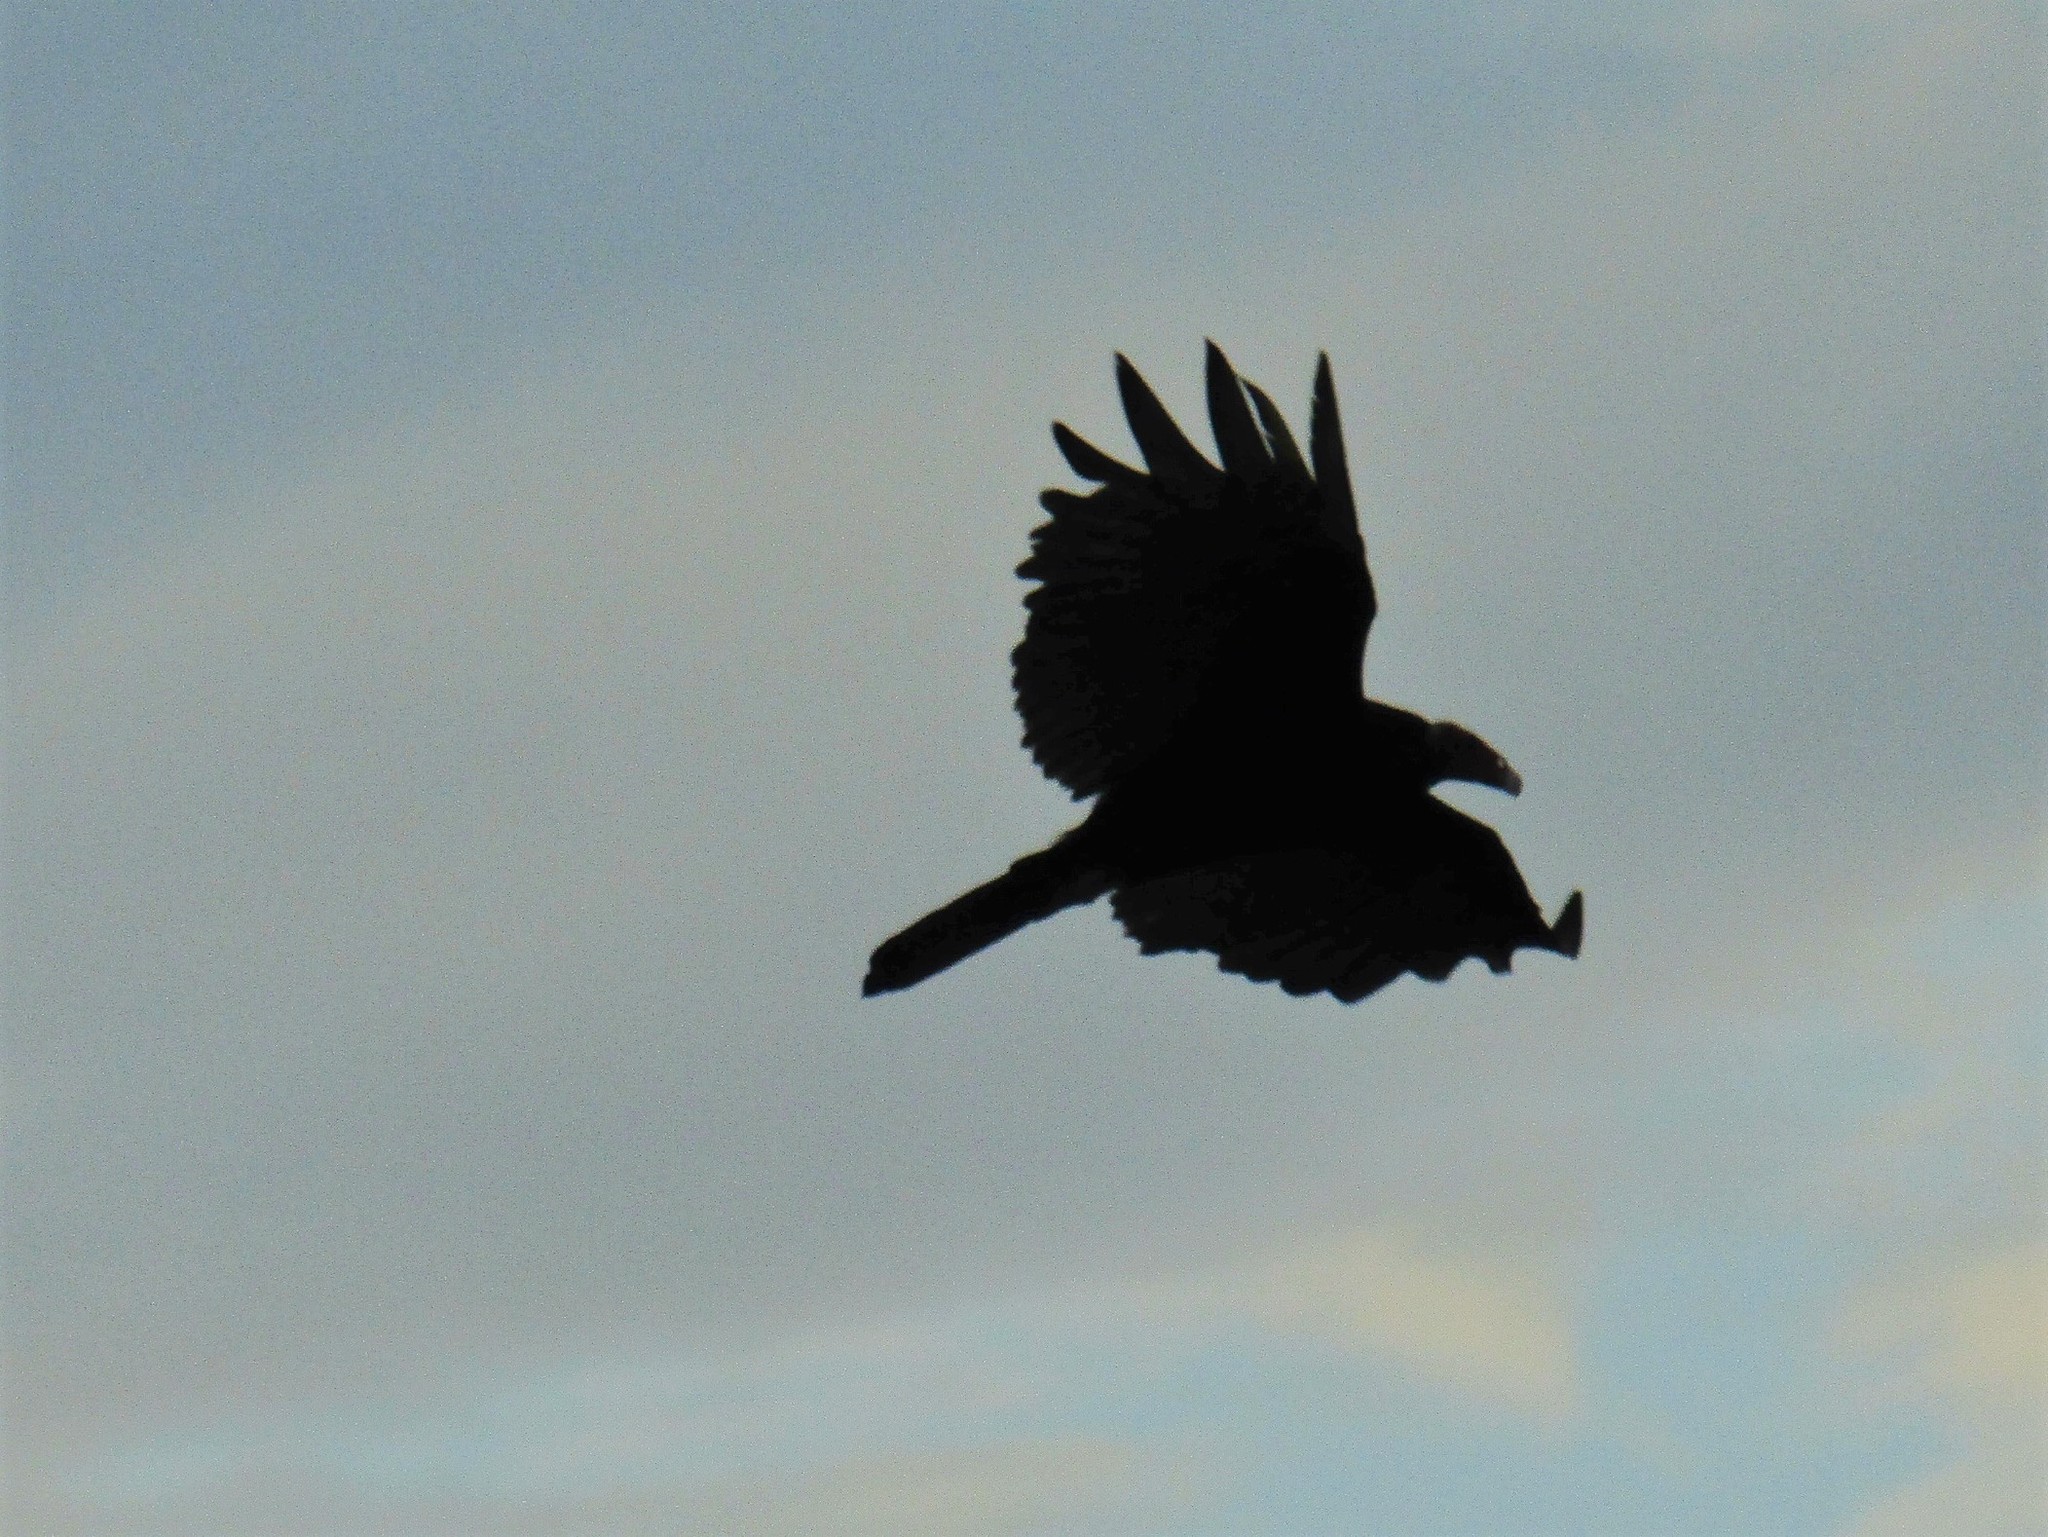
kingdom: Animalia
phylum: Chordata
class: Aves
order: Accipitriformes
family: Cathartidae
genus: Cathartes
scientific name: Cathartes aura
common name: Turkey vulture
